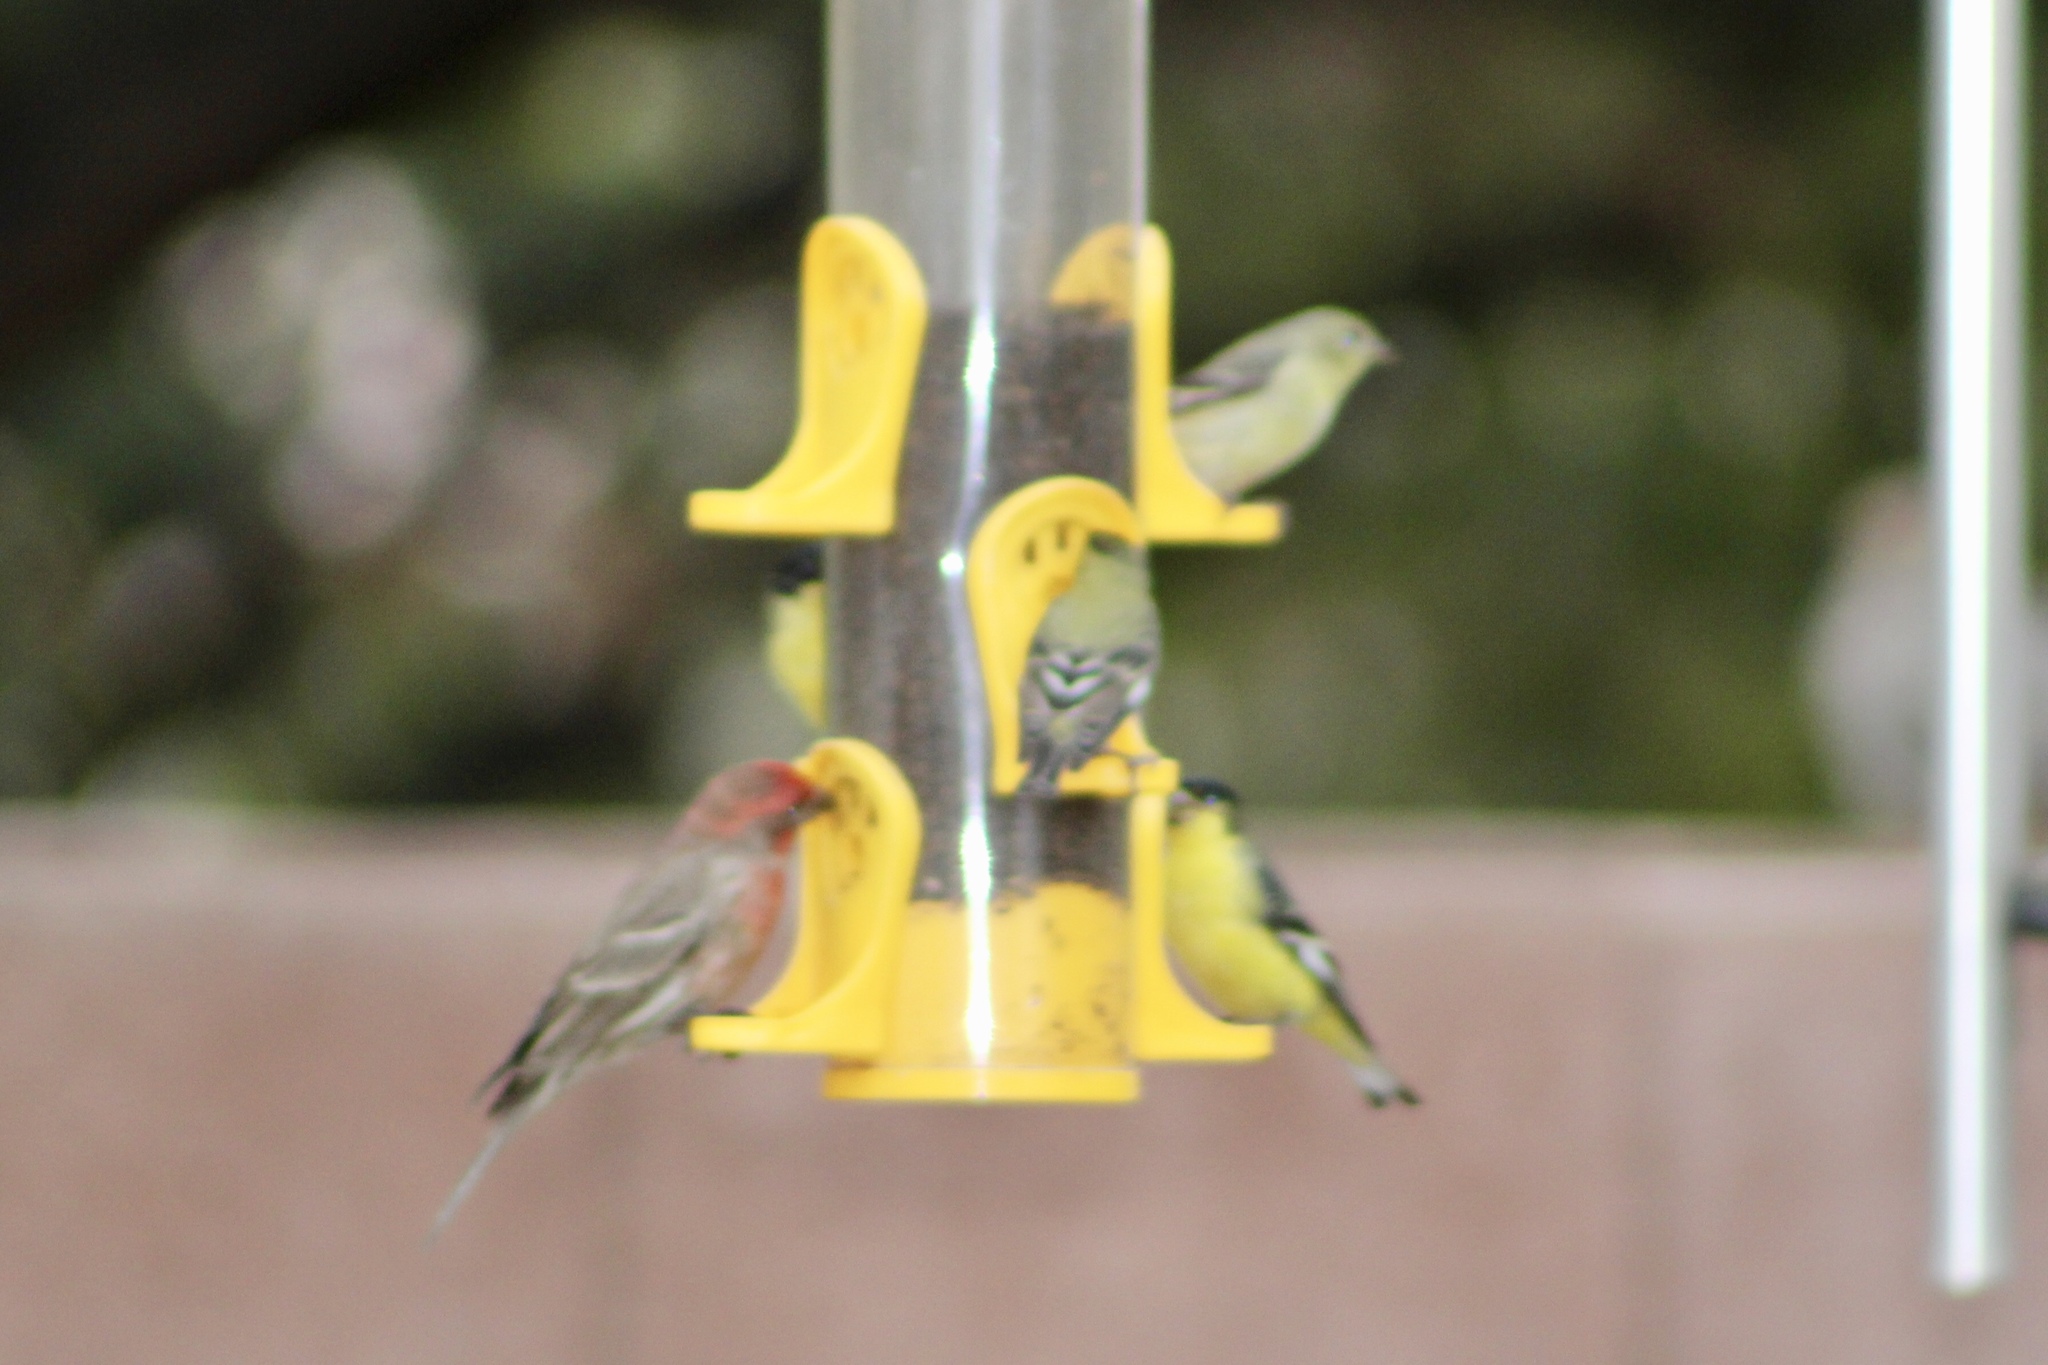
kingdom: Animalia
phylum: Chordata
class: Aves
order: Passeriformes
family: Fringillidae
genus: Spinus
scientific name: Spinus psaltria
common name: Lesser goldfinch
